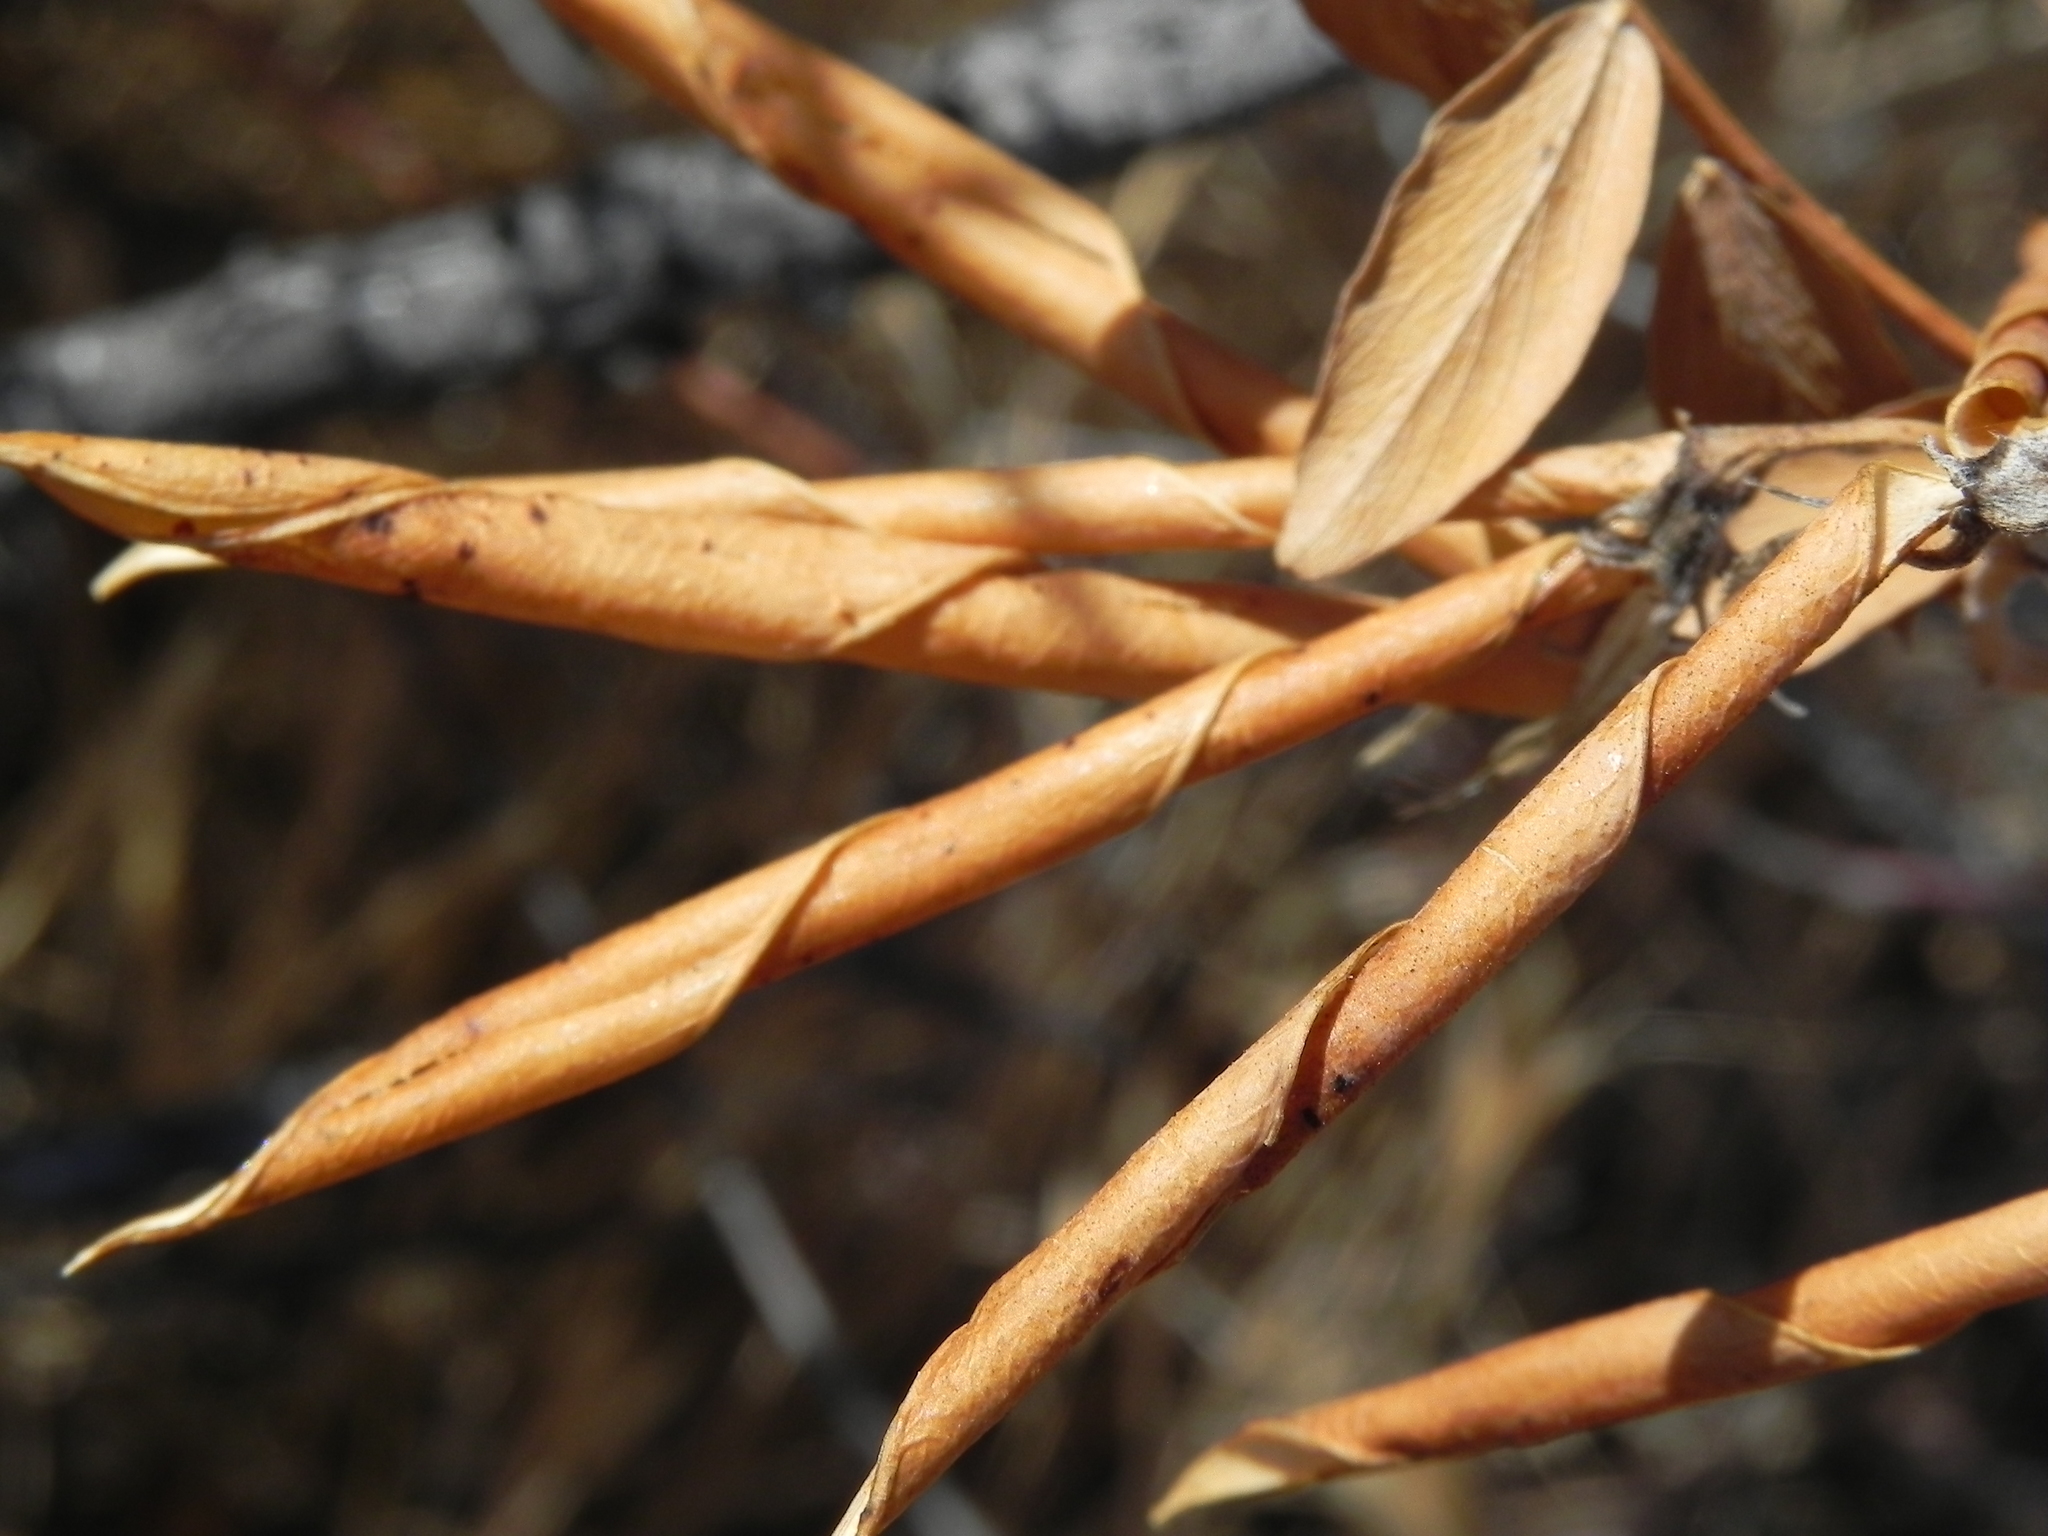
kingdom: Plantae
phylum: Tracheophyta
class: Magnoliopsida
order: Fabales
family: Fabaceae
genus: Lathyrus
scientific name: Lathyrus vestitus
